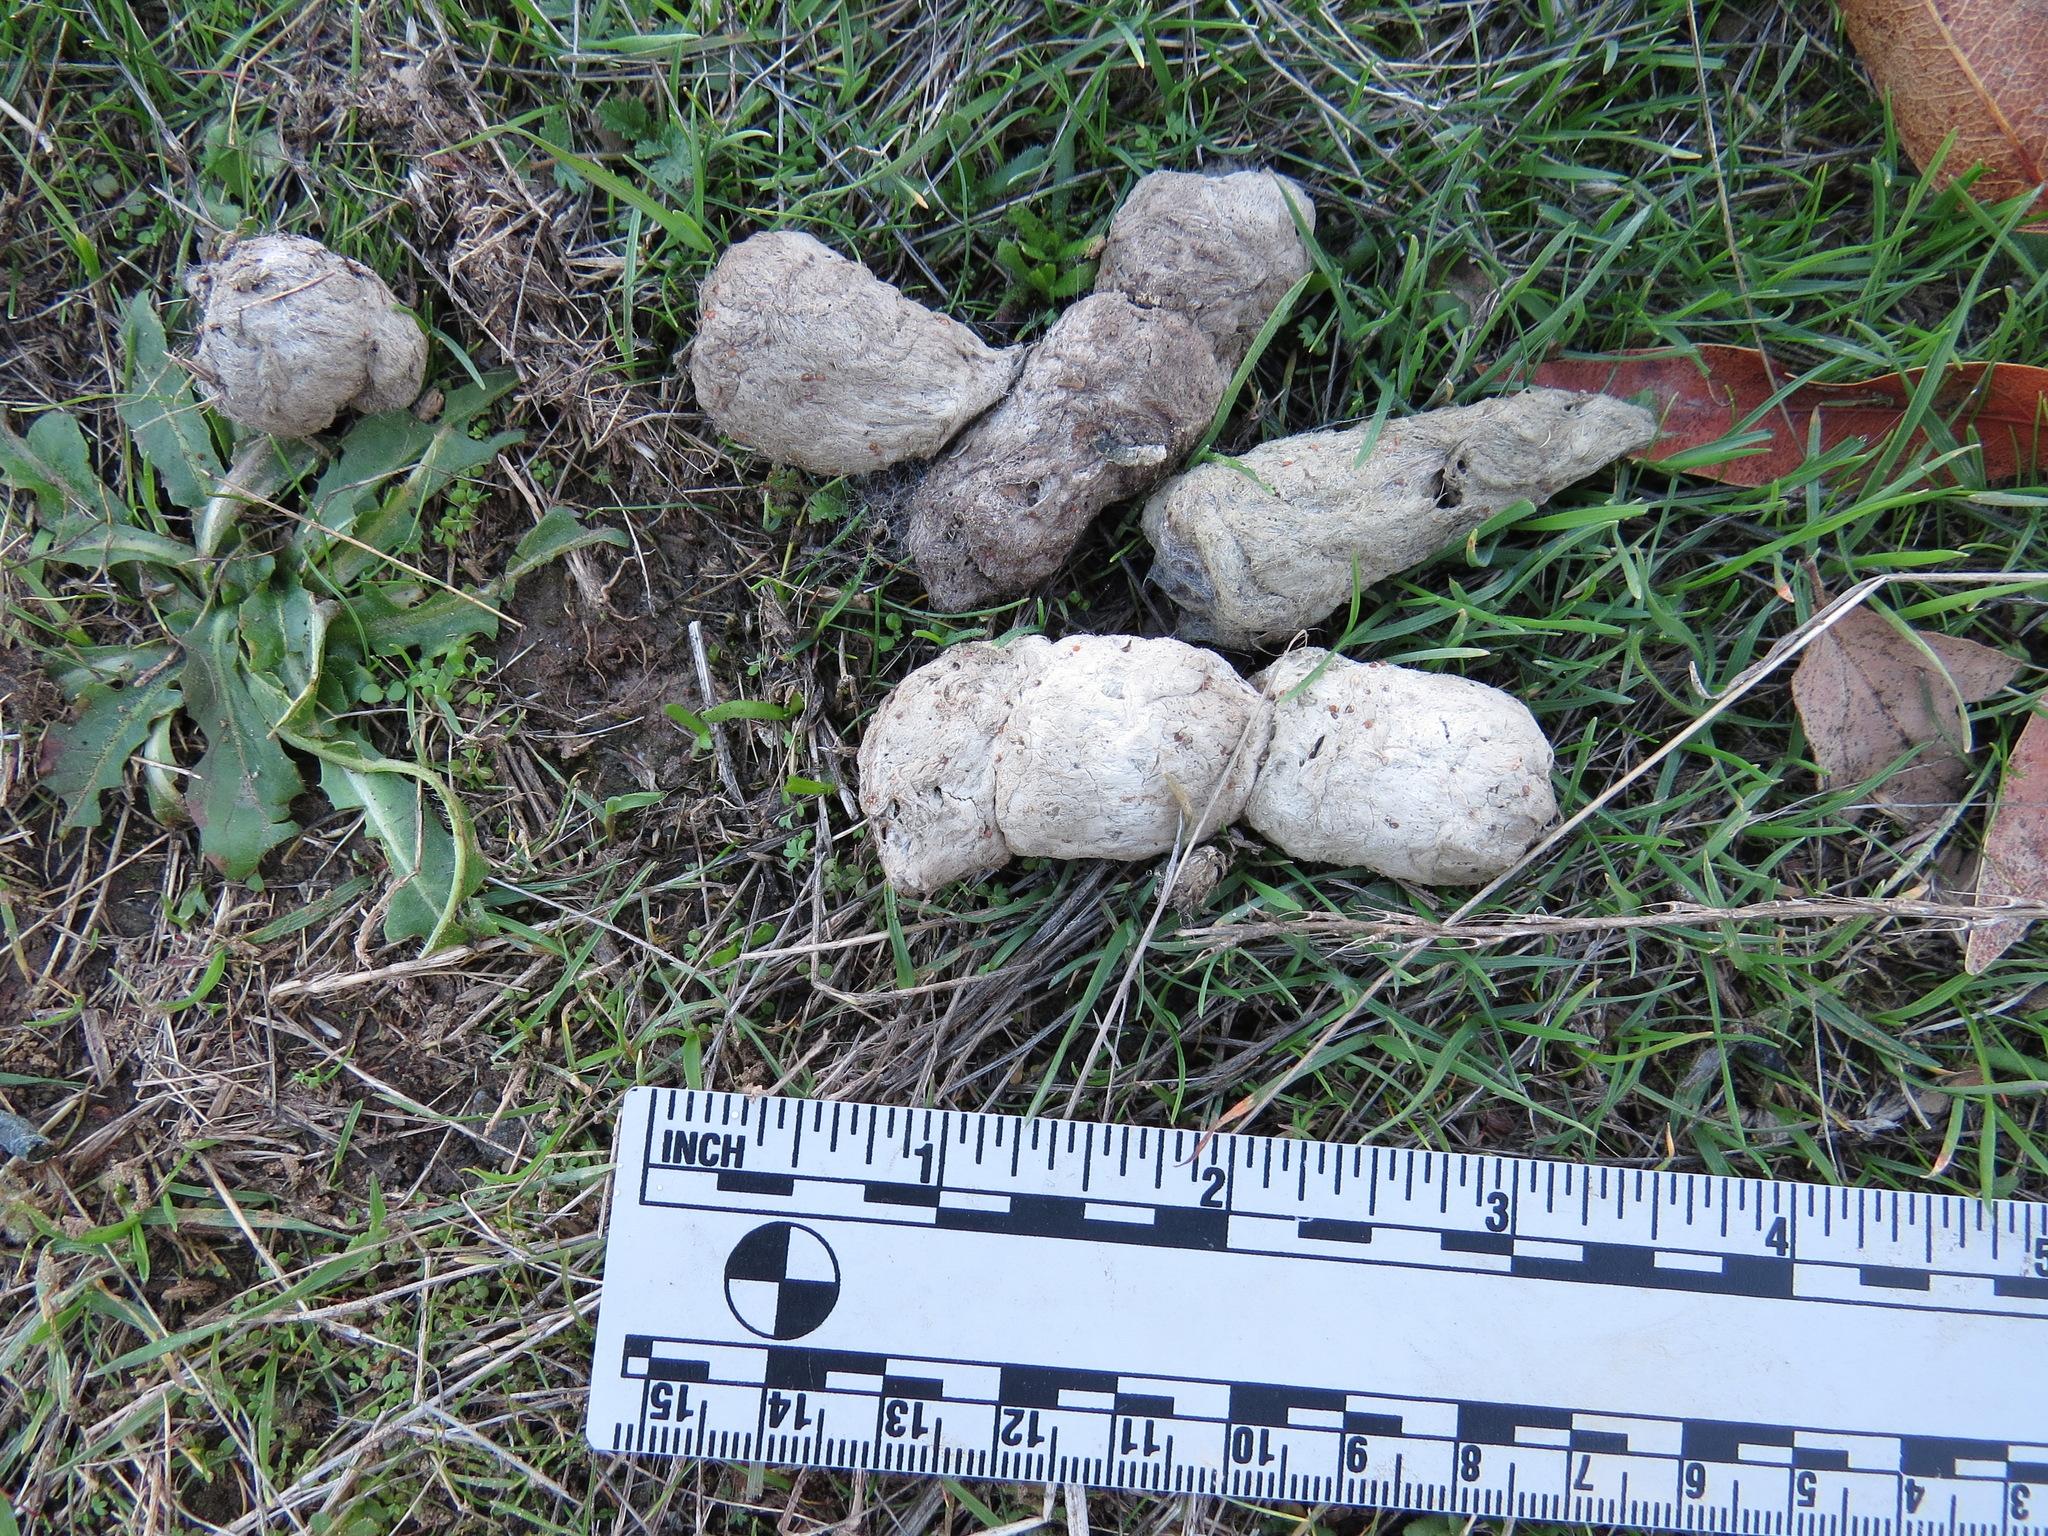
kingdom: Animalia
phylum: Chordata
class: Mammalia
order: Carnivora
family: Felidae
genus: Lynx
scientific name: Lynx rufus
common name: Bobcat
